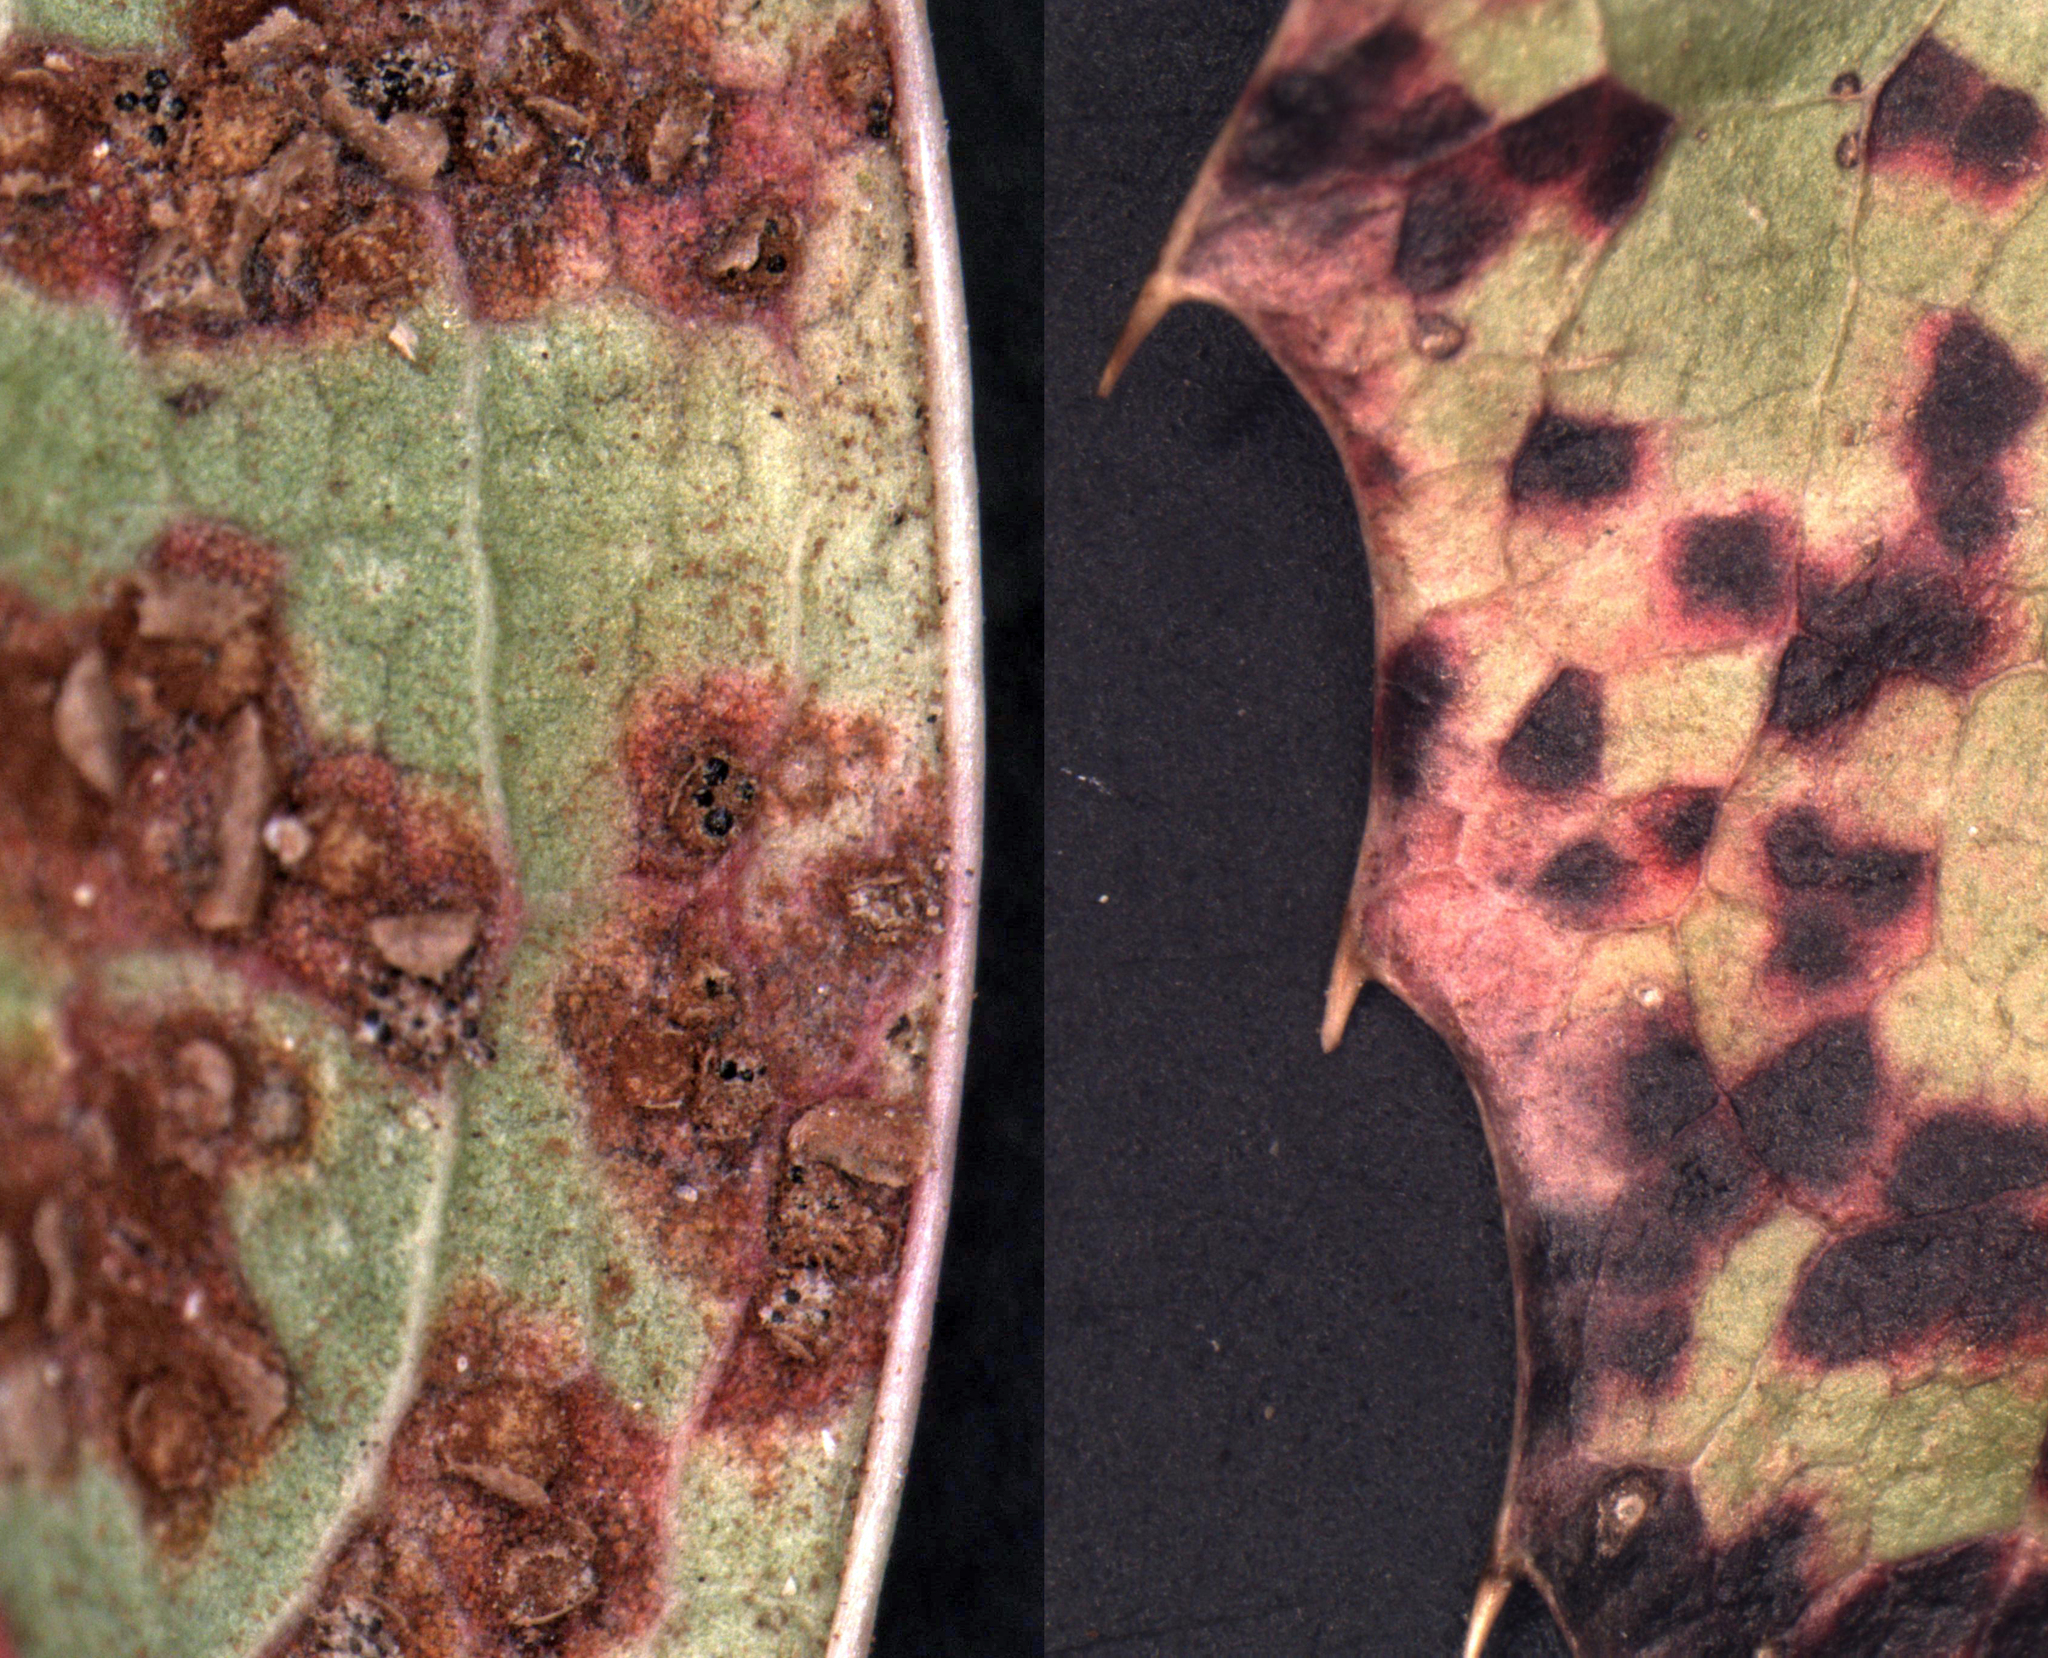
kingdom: Fungi
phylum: Basidiomycota
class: Pucciniomycetes
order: Pucciniales
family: Pucciniaceae
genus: Cumminsiella
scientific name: Cumminsiella mirabilissima
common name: Mahonia rust
